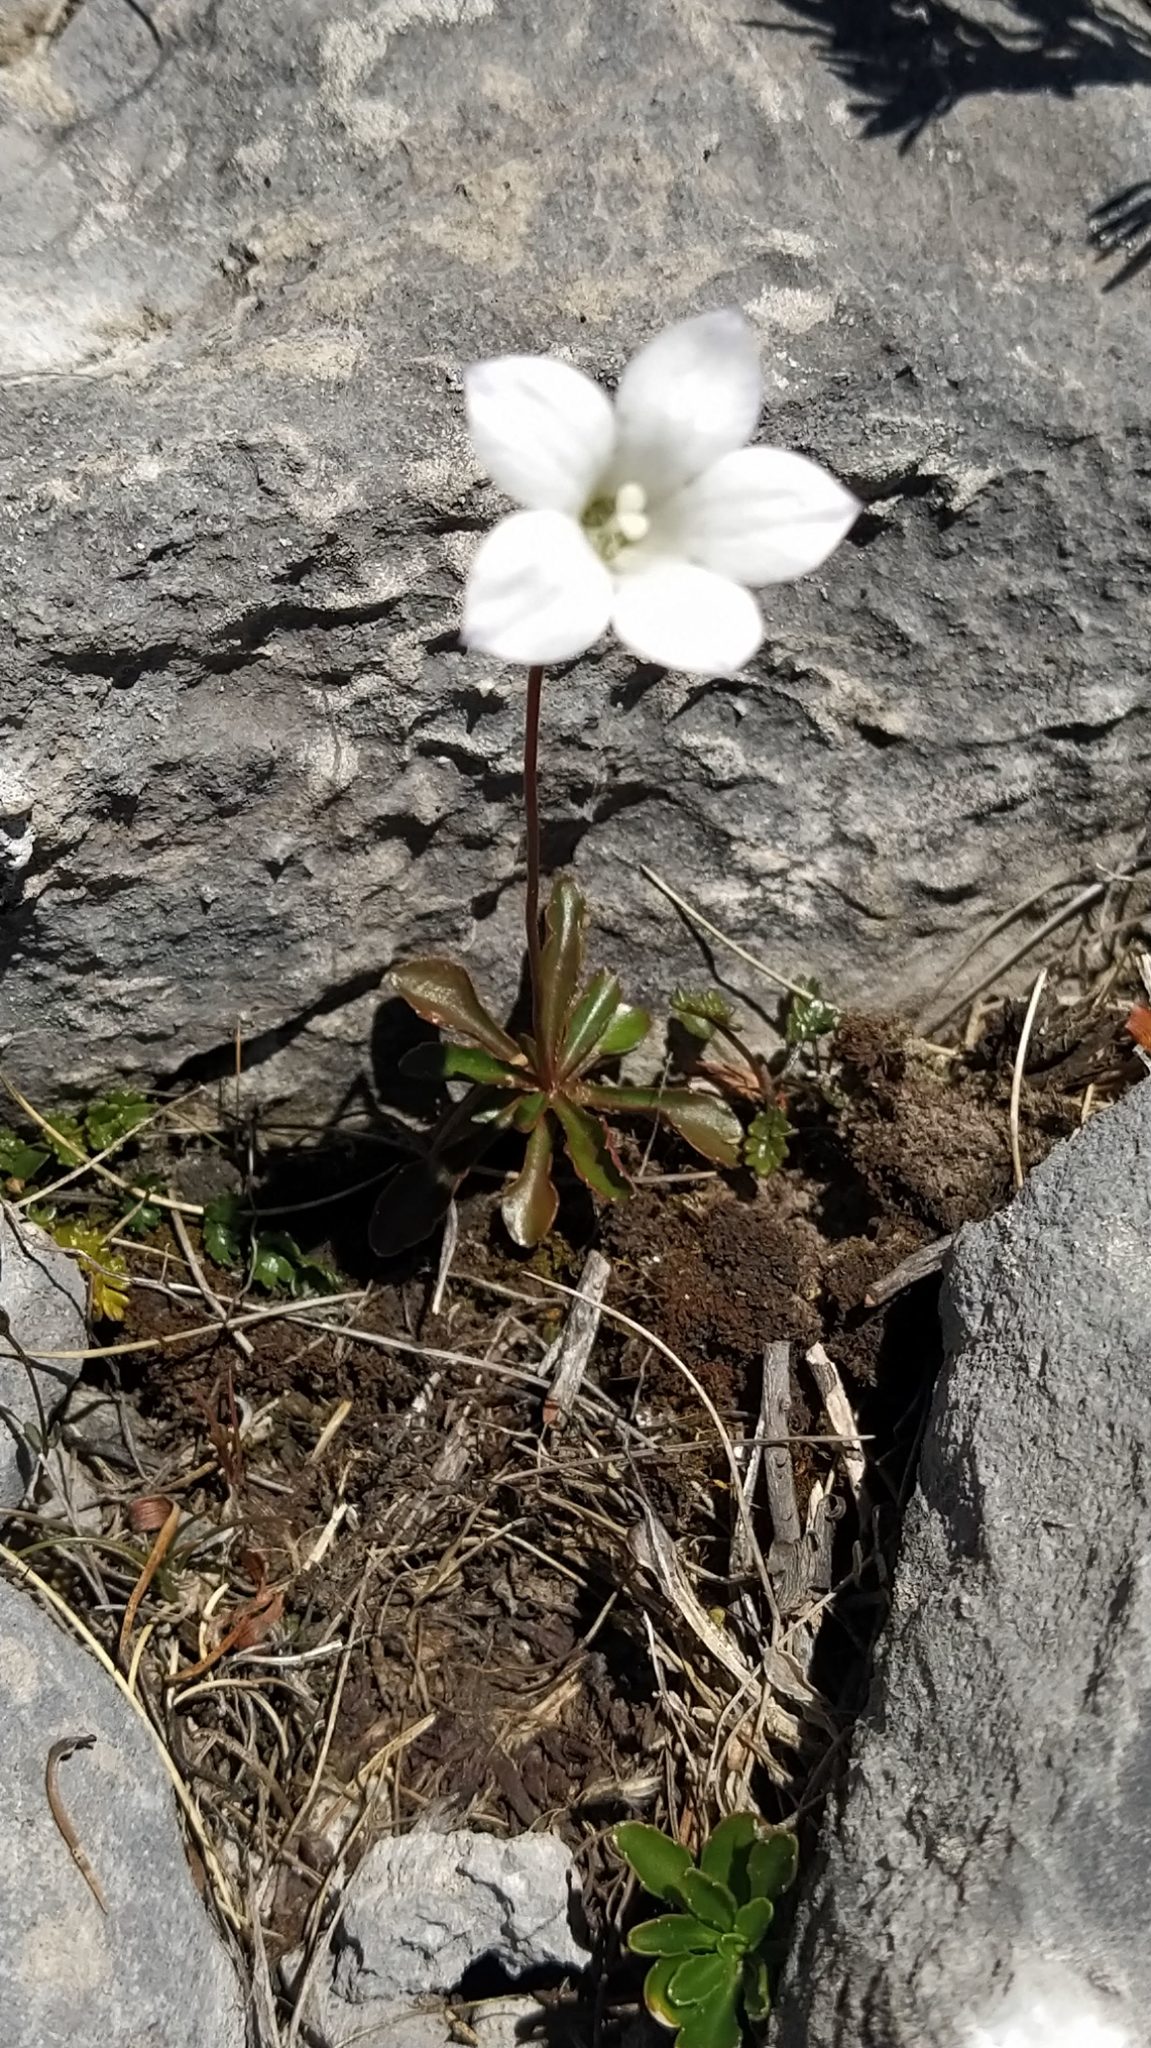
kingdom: Plantae
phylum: Tracheophyta
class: Magnoliopsida
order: Asterales
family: Campanulaceae
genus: Wahlenbergia
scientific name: Wahlenbergia albomarginata
